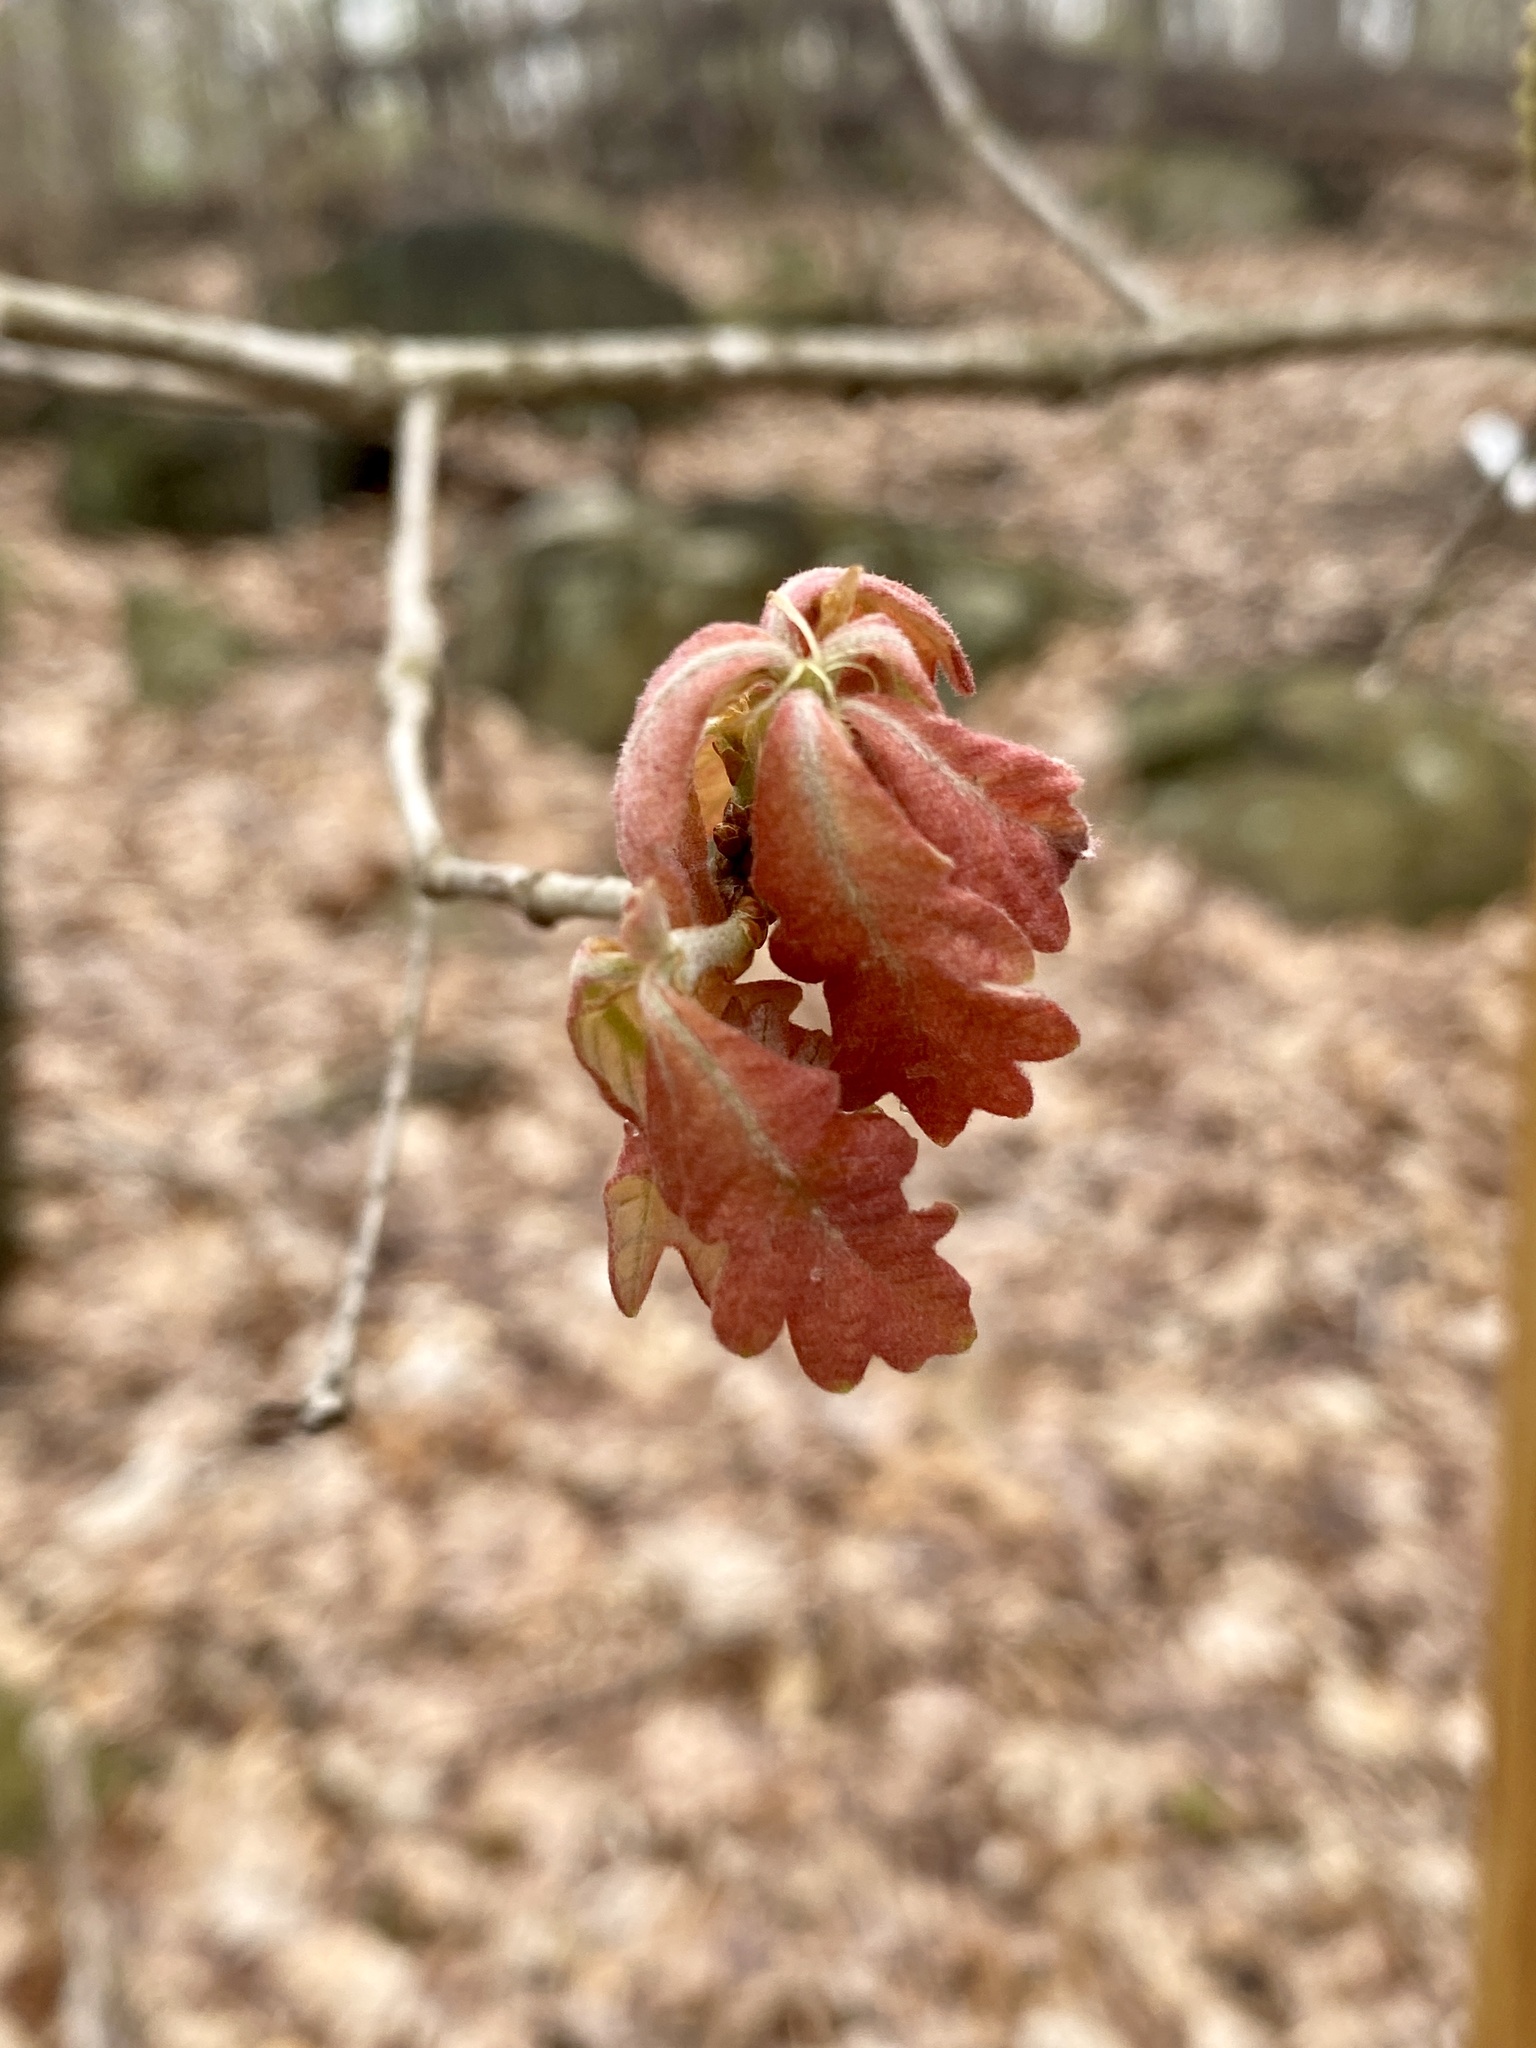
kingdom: Plantae
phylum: Tracheophyta
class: Magnoliopsida
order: Fagales
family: Fagaceae
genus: Quercus
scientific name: Quercus alba
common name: White oak
